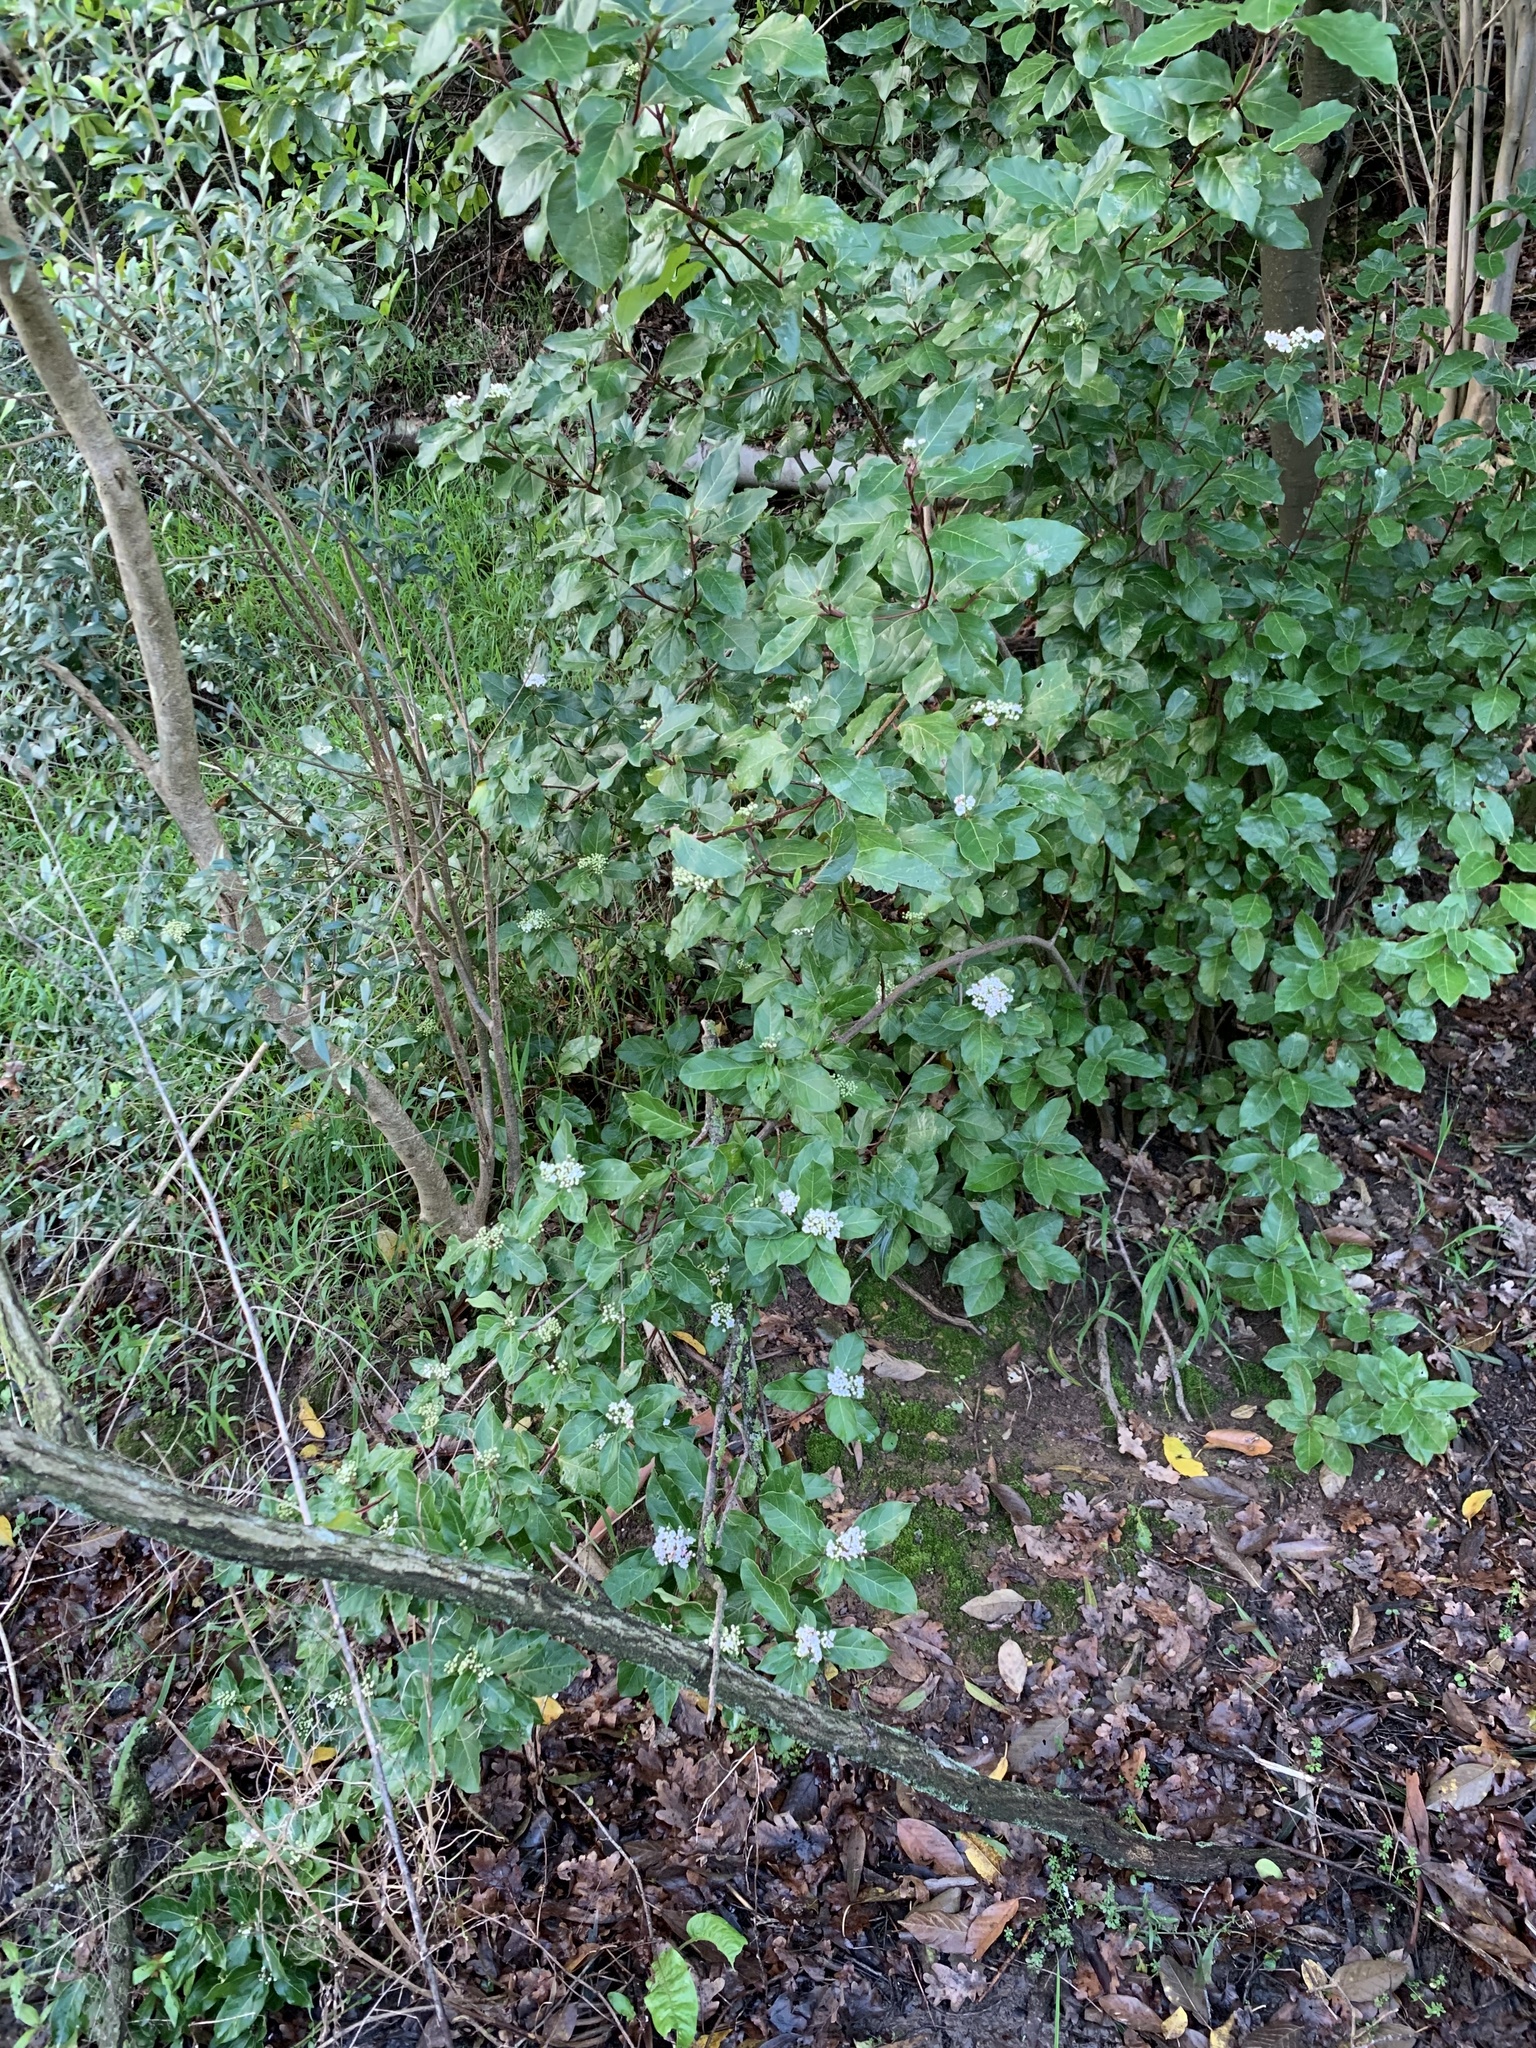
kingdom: Plantae
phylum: Tracheophyta
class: Magnoliopsida
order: Dipsacales
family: Viburnaceae
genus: Viburnum
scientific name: Viburnum tinus
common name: Laurustinus
